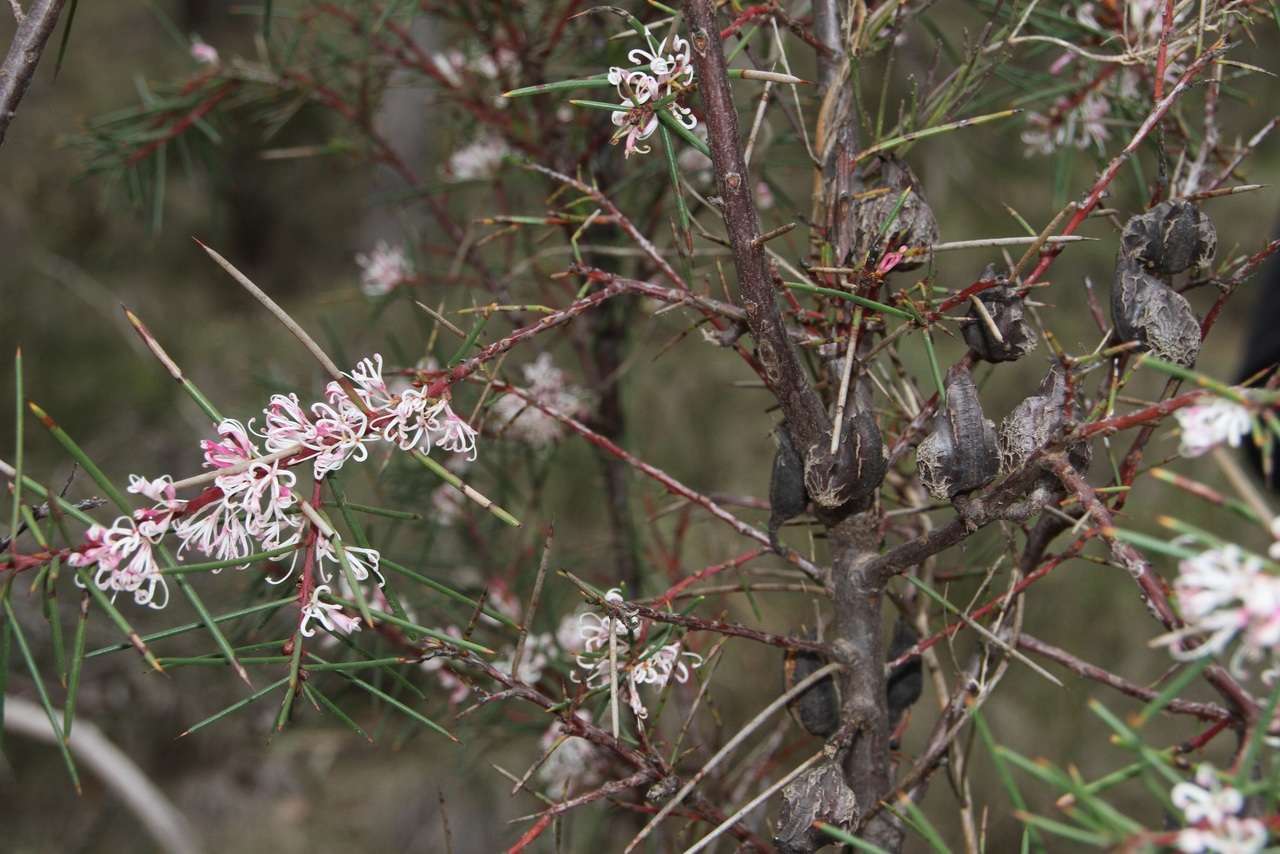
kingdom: Plantae
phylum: Tracheophyta
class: Magnoliopsida
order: Proteales
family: Proteaceae
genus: Hakea
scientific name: Hakea decurrens
